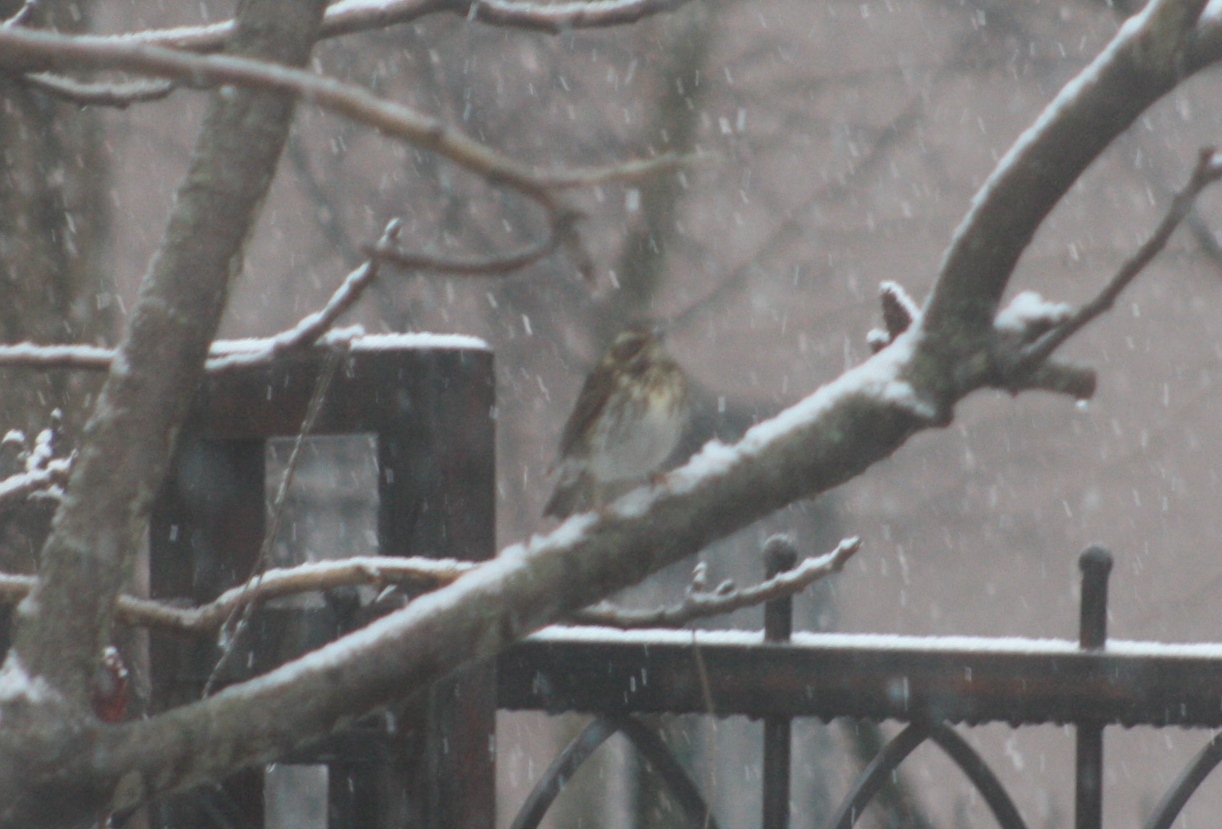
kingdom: Animalia
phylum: Chordata
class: Aves
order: Passeriformes
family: Turdidae
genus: Turdus
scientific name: Turdus iliacus
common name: Redwing
